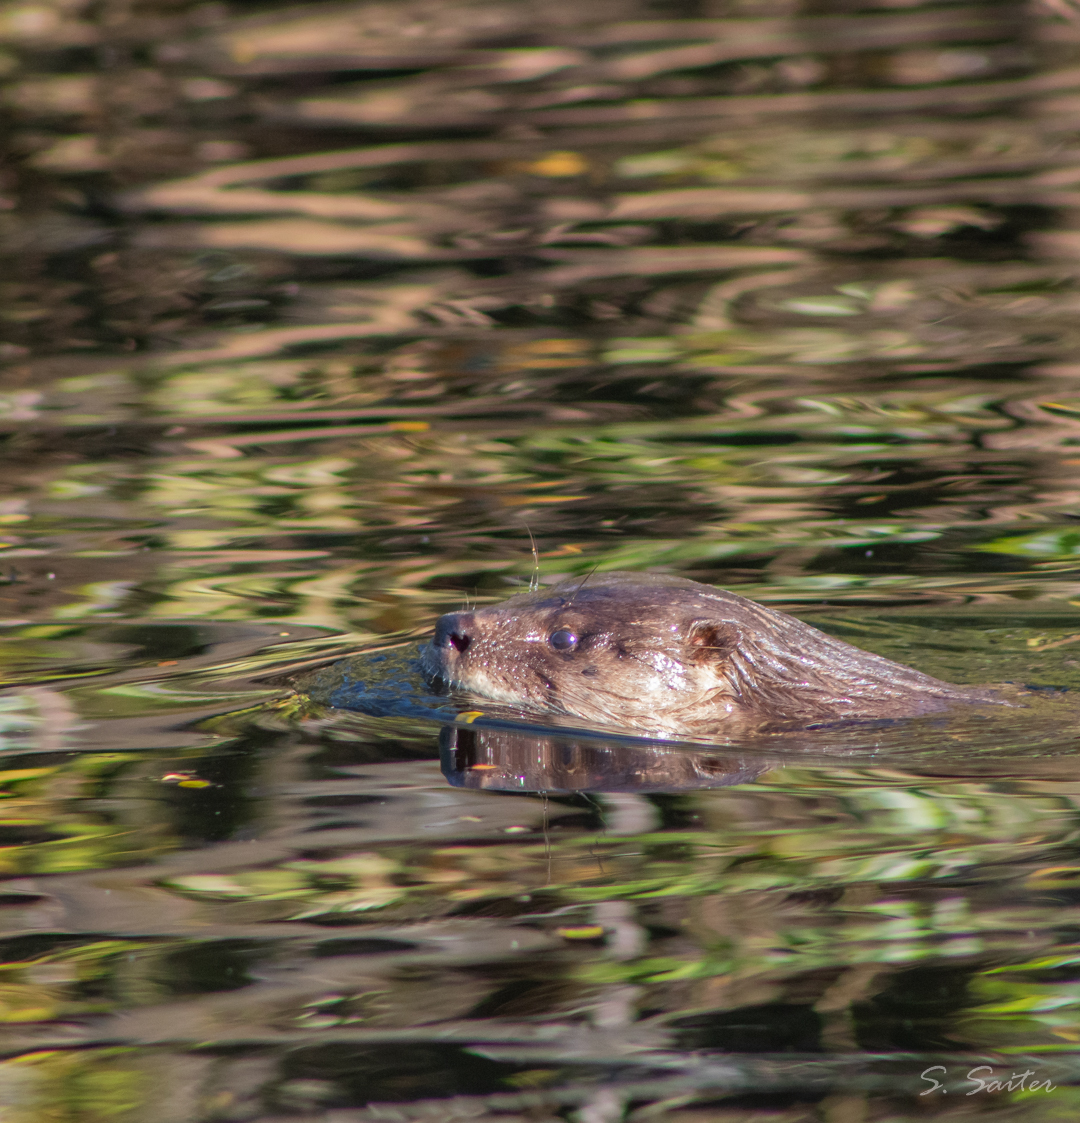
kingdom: Animalia
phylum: Chordata
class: Mammalia
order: Carnivora
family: Mustelidae
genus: Lontra
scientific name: Lontra provocax
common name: Southern river otter
